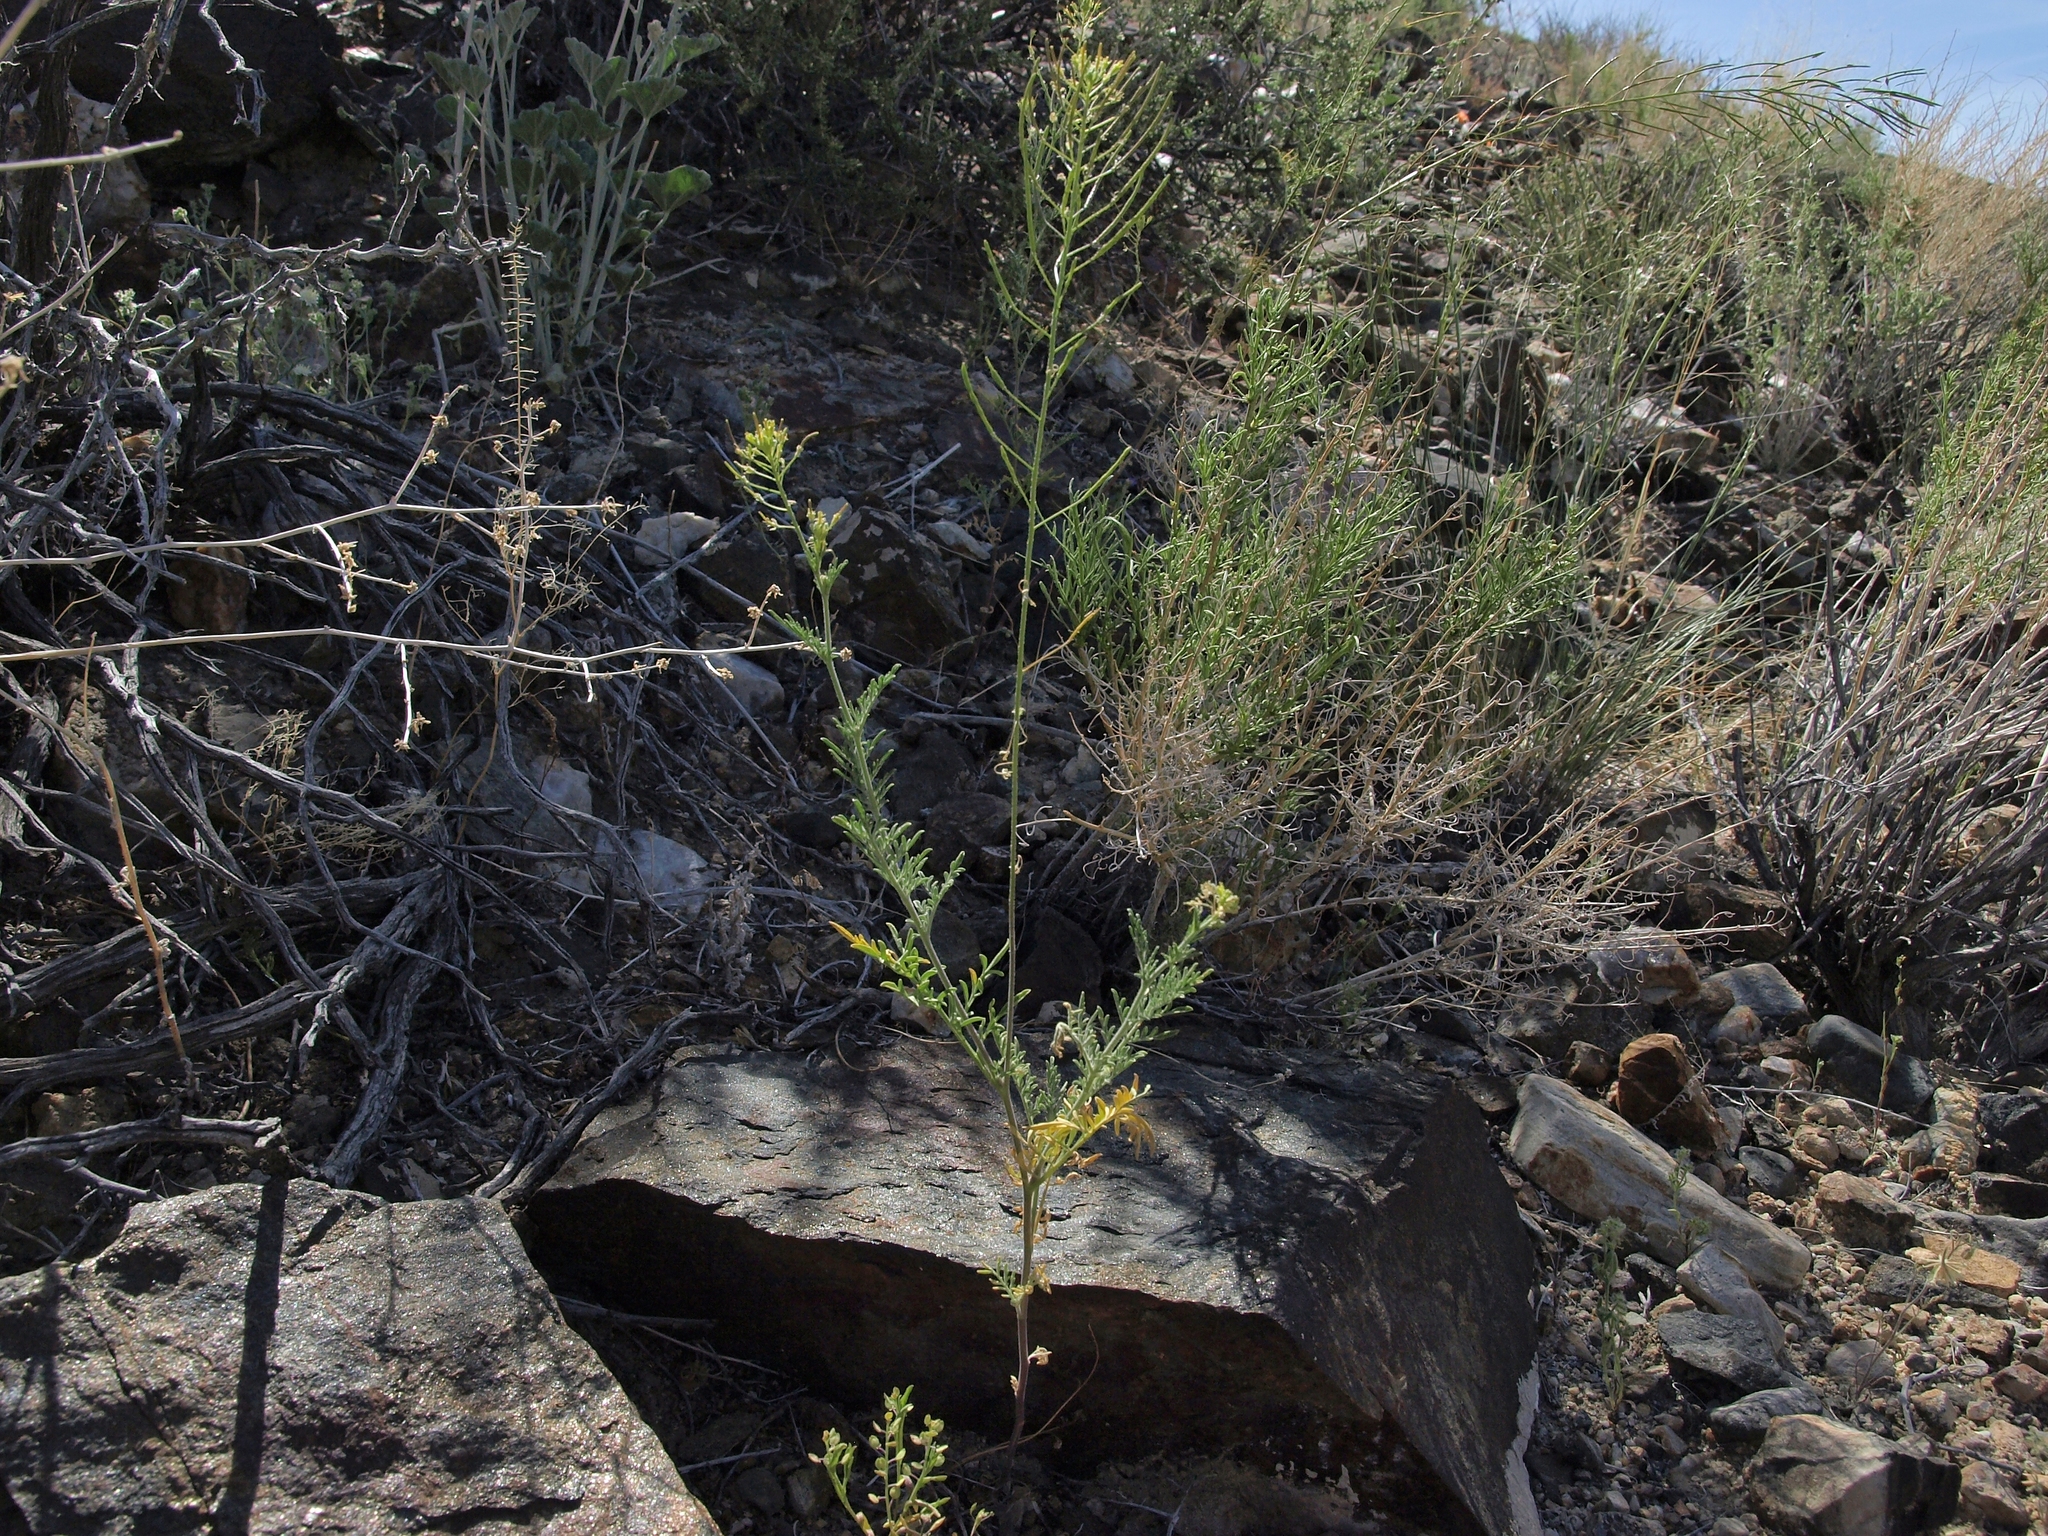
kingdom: Plantae
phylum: Tracheophyta
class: Magnoliopsida
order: Brassicales
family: Brassicaceae
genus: Descurainia
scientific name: Descurainia sophia
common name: Flixweed
